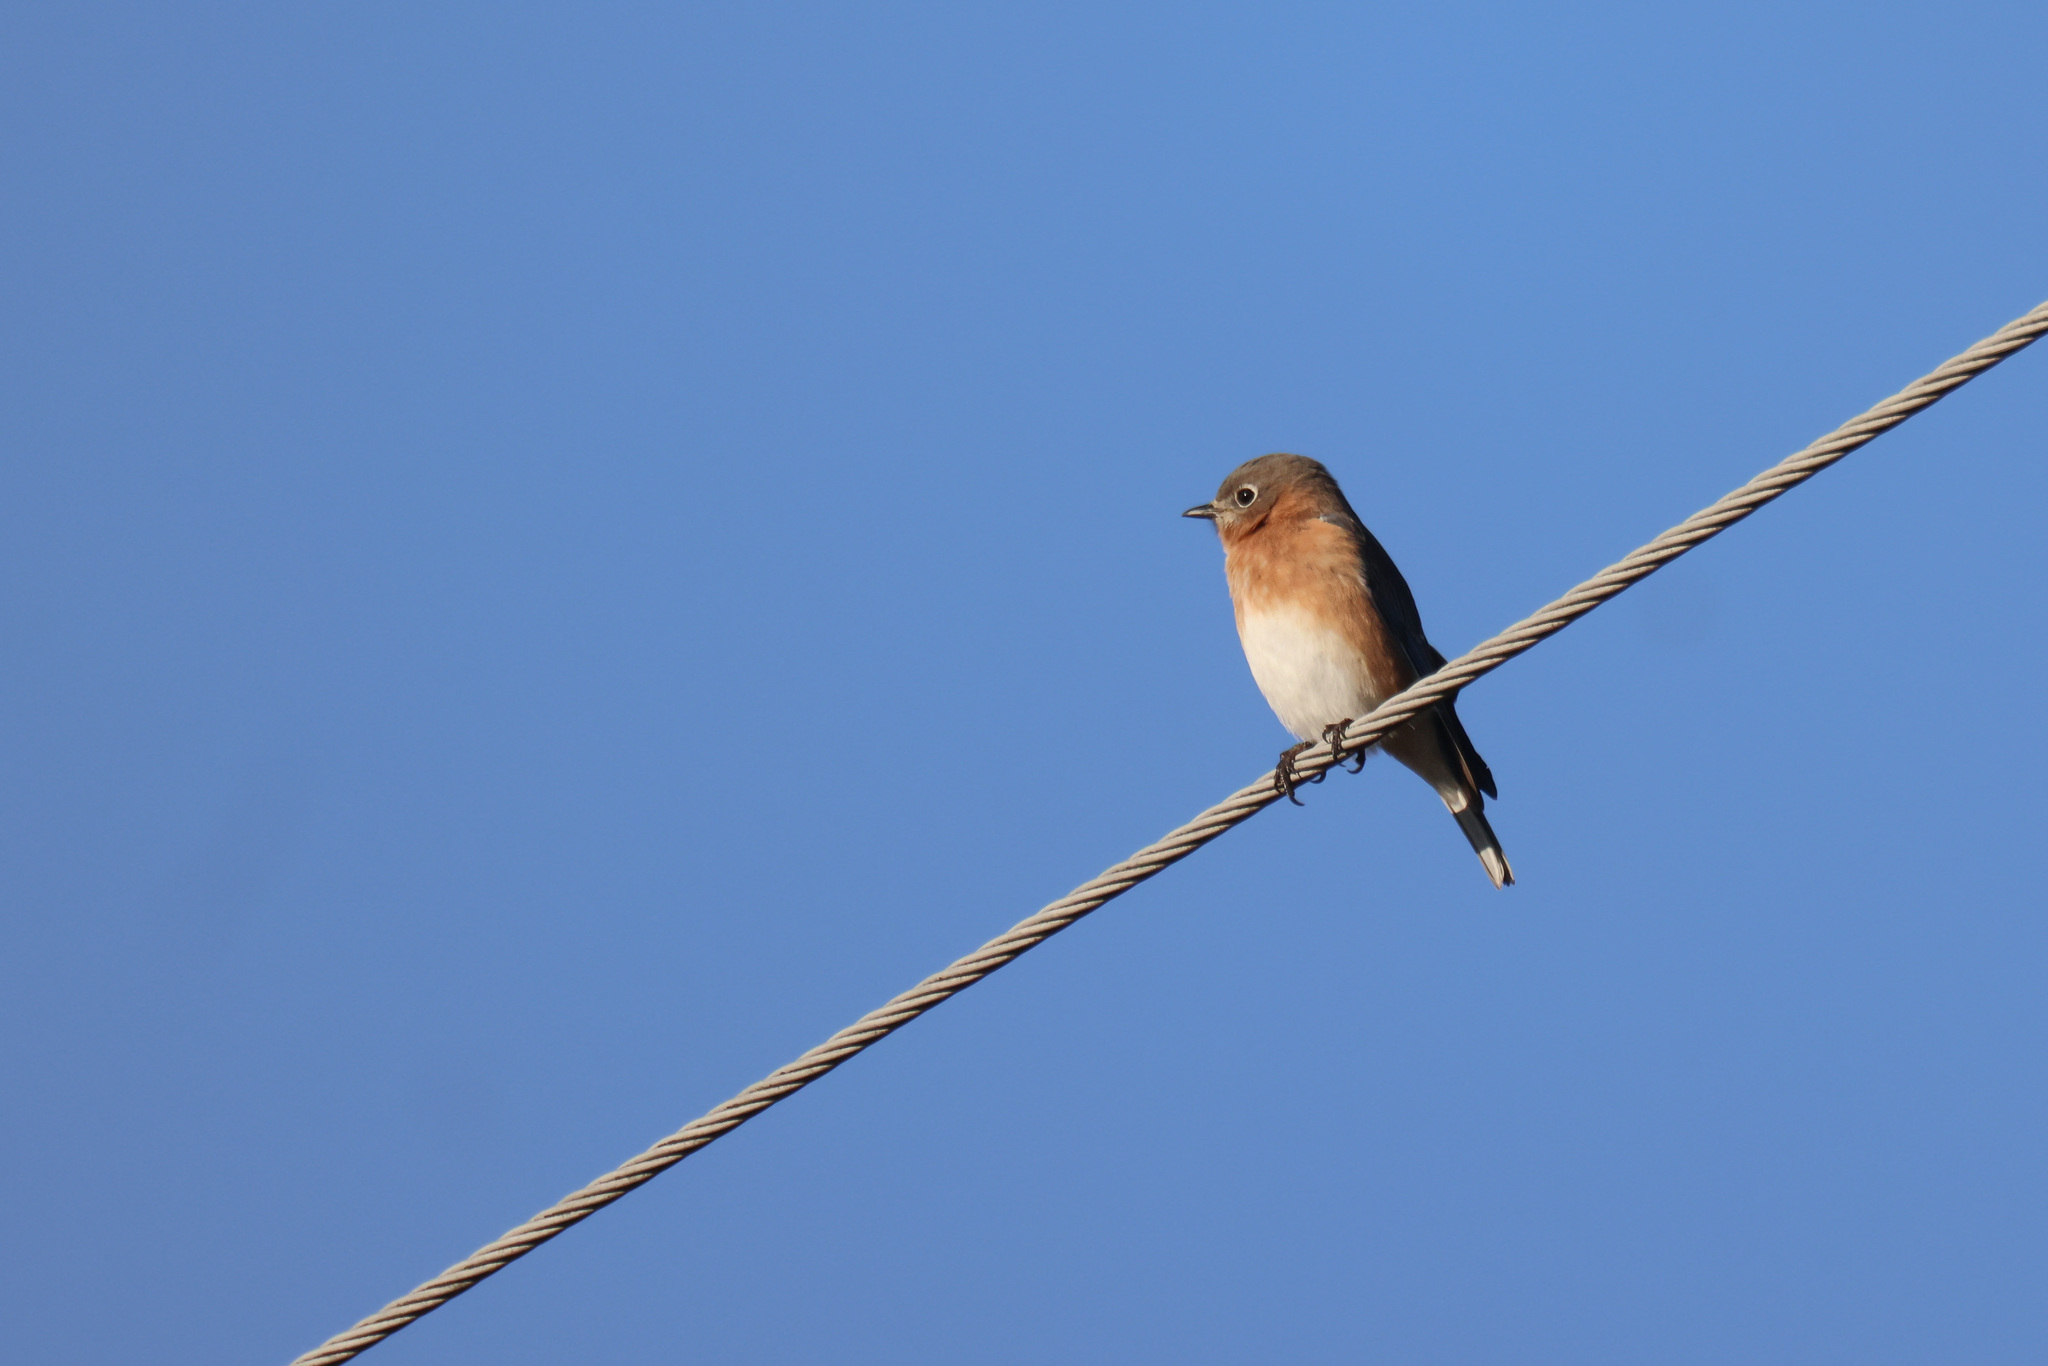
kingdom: Animalia
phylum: Chordata
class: Aves
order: Passeriformes
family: Turdidae
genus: Sialia
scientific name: Sialia sialis
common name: Eastern bluebird
